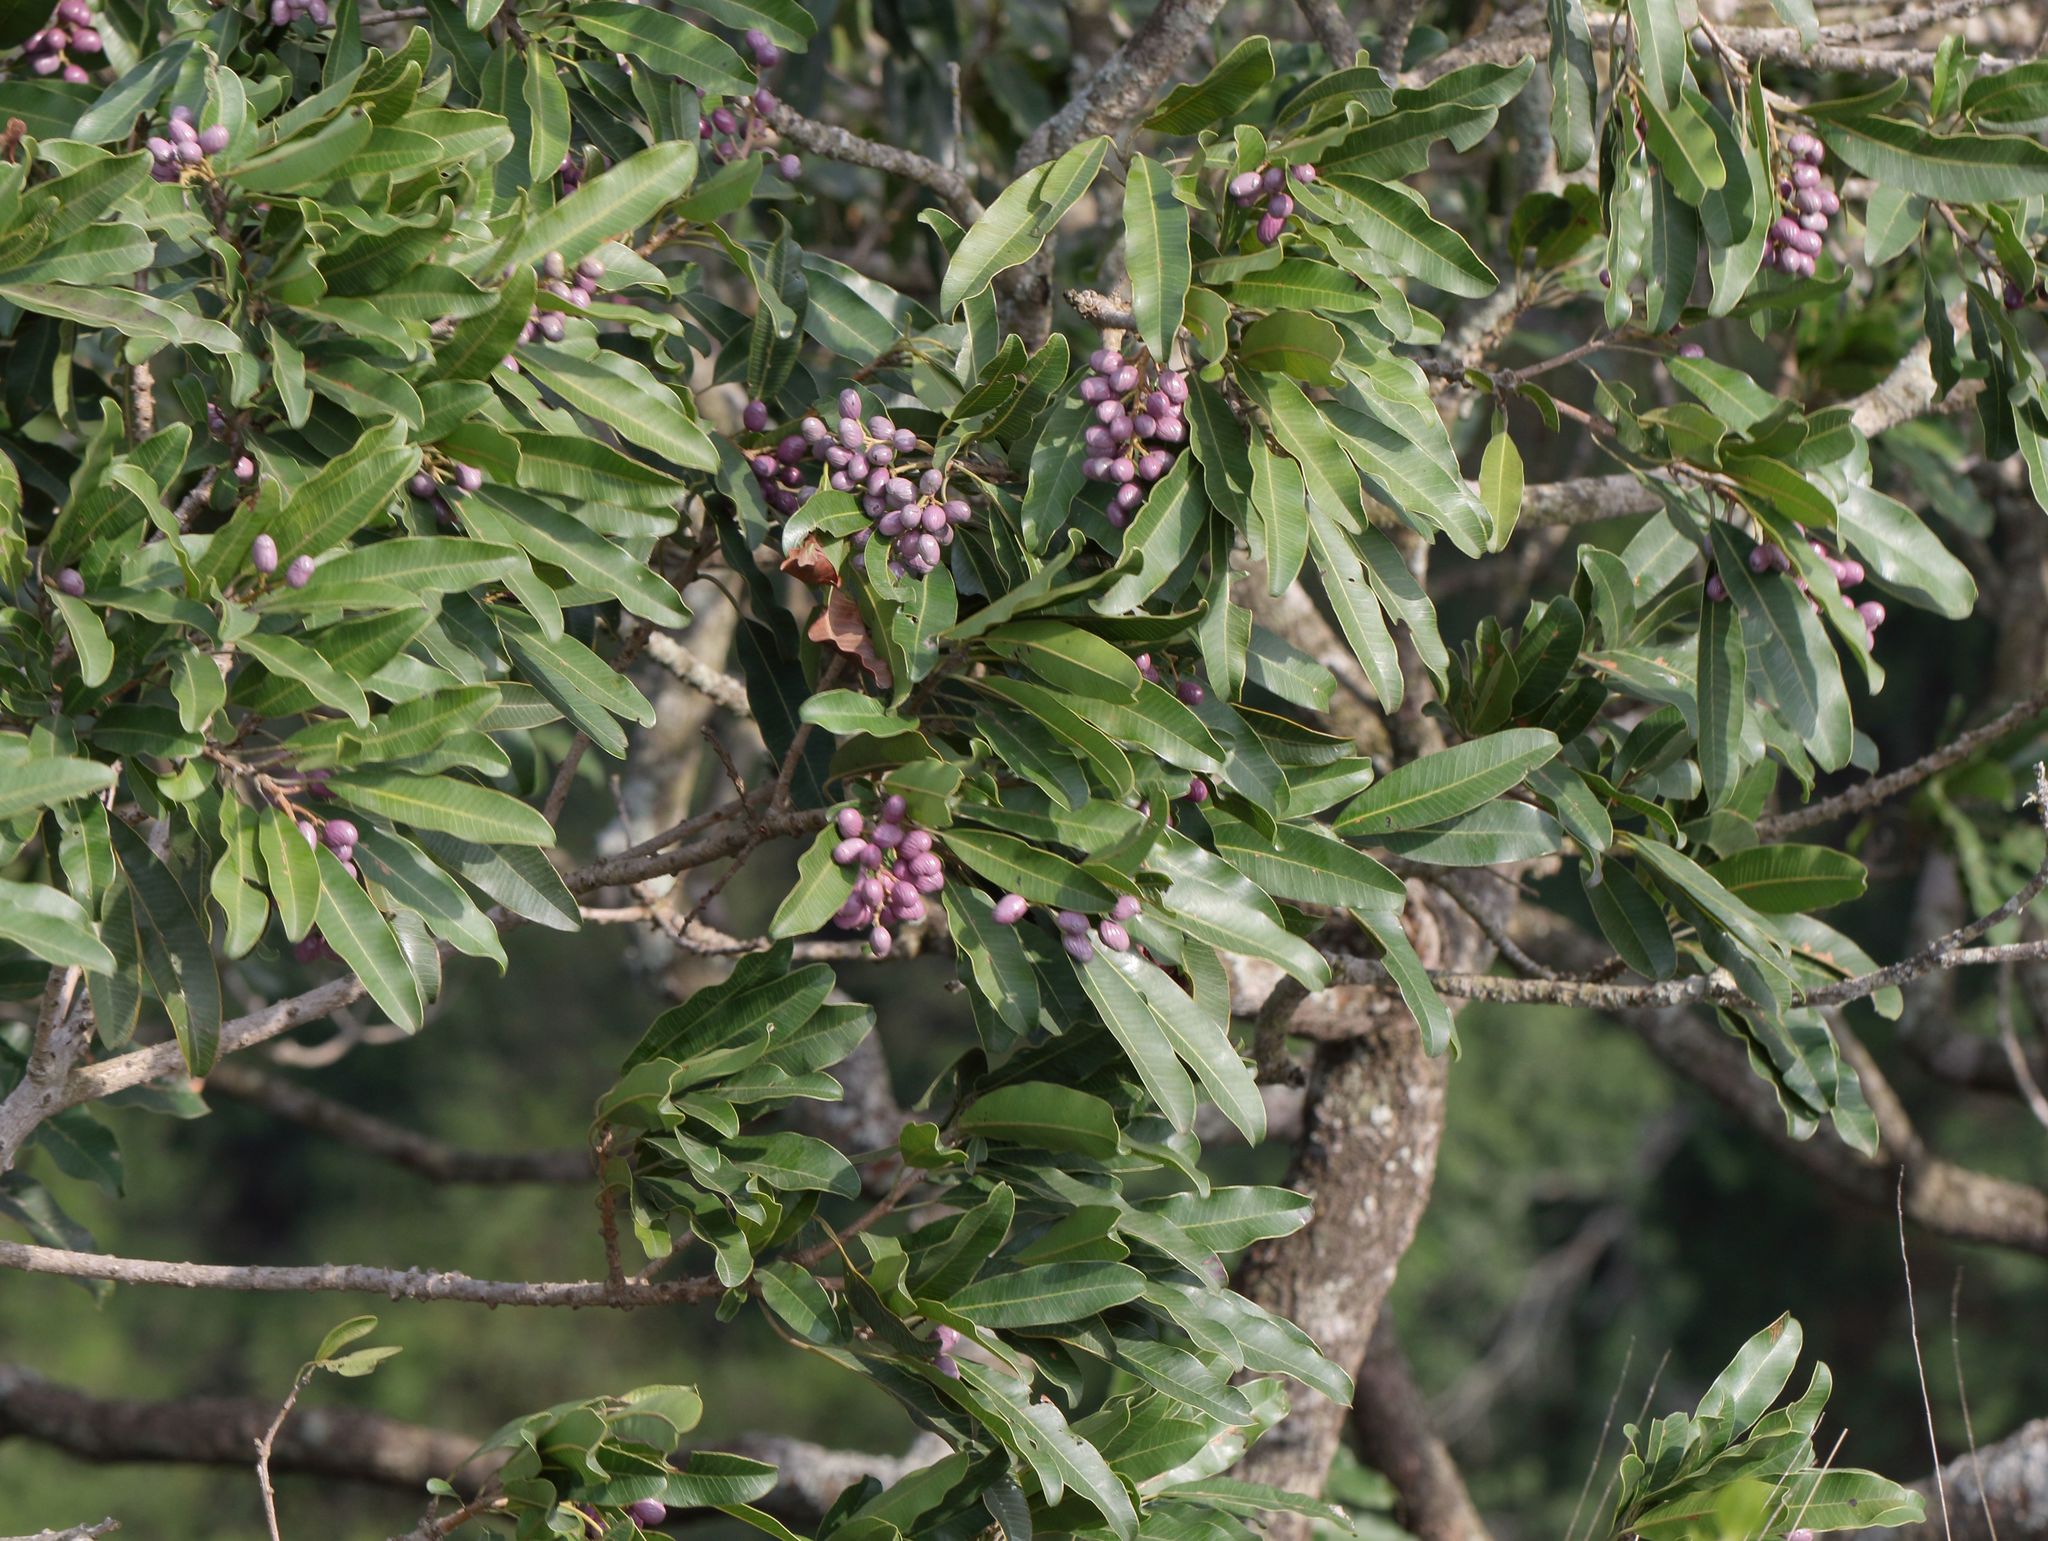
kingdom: Plantae
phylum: Tracheophyta
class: Magnoliopsida
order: Sapindales
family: Anacardiaceae
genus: Protorhus
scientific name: Protorhus longifolia
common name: Red-beech
